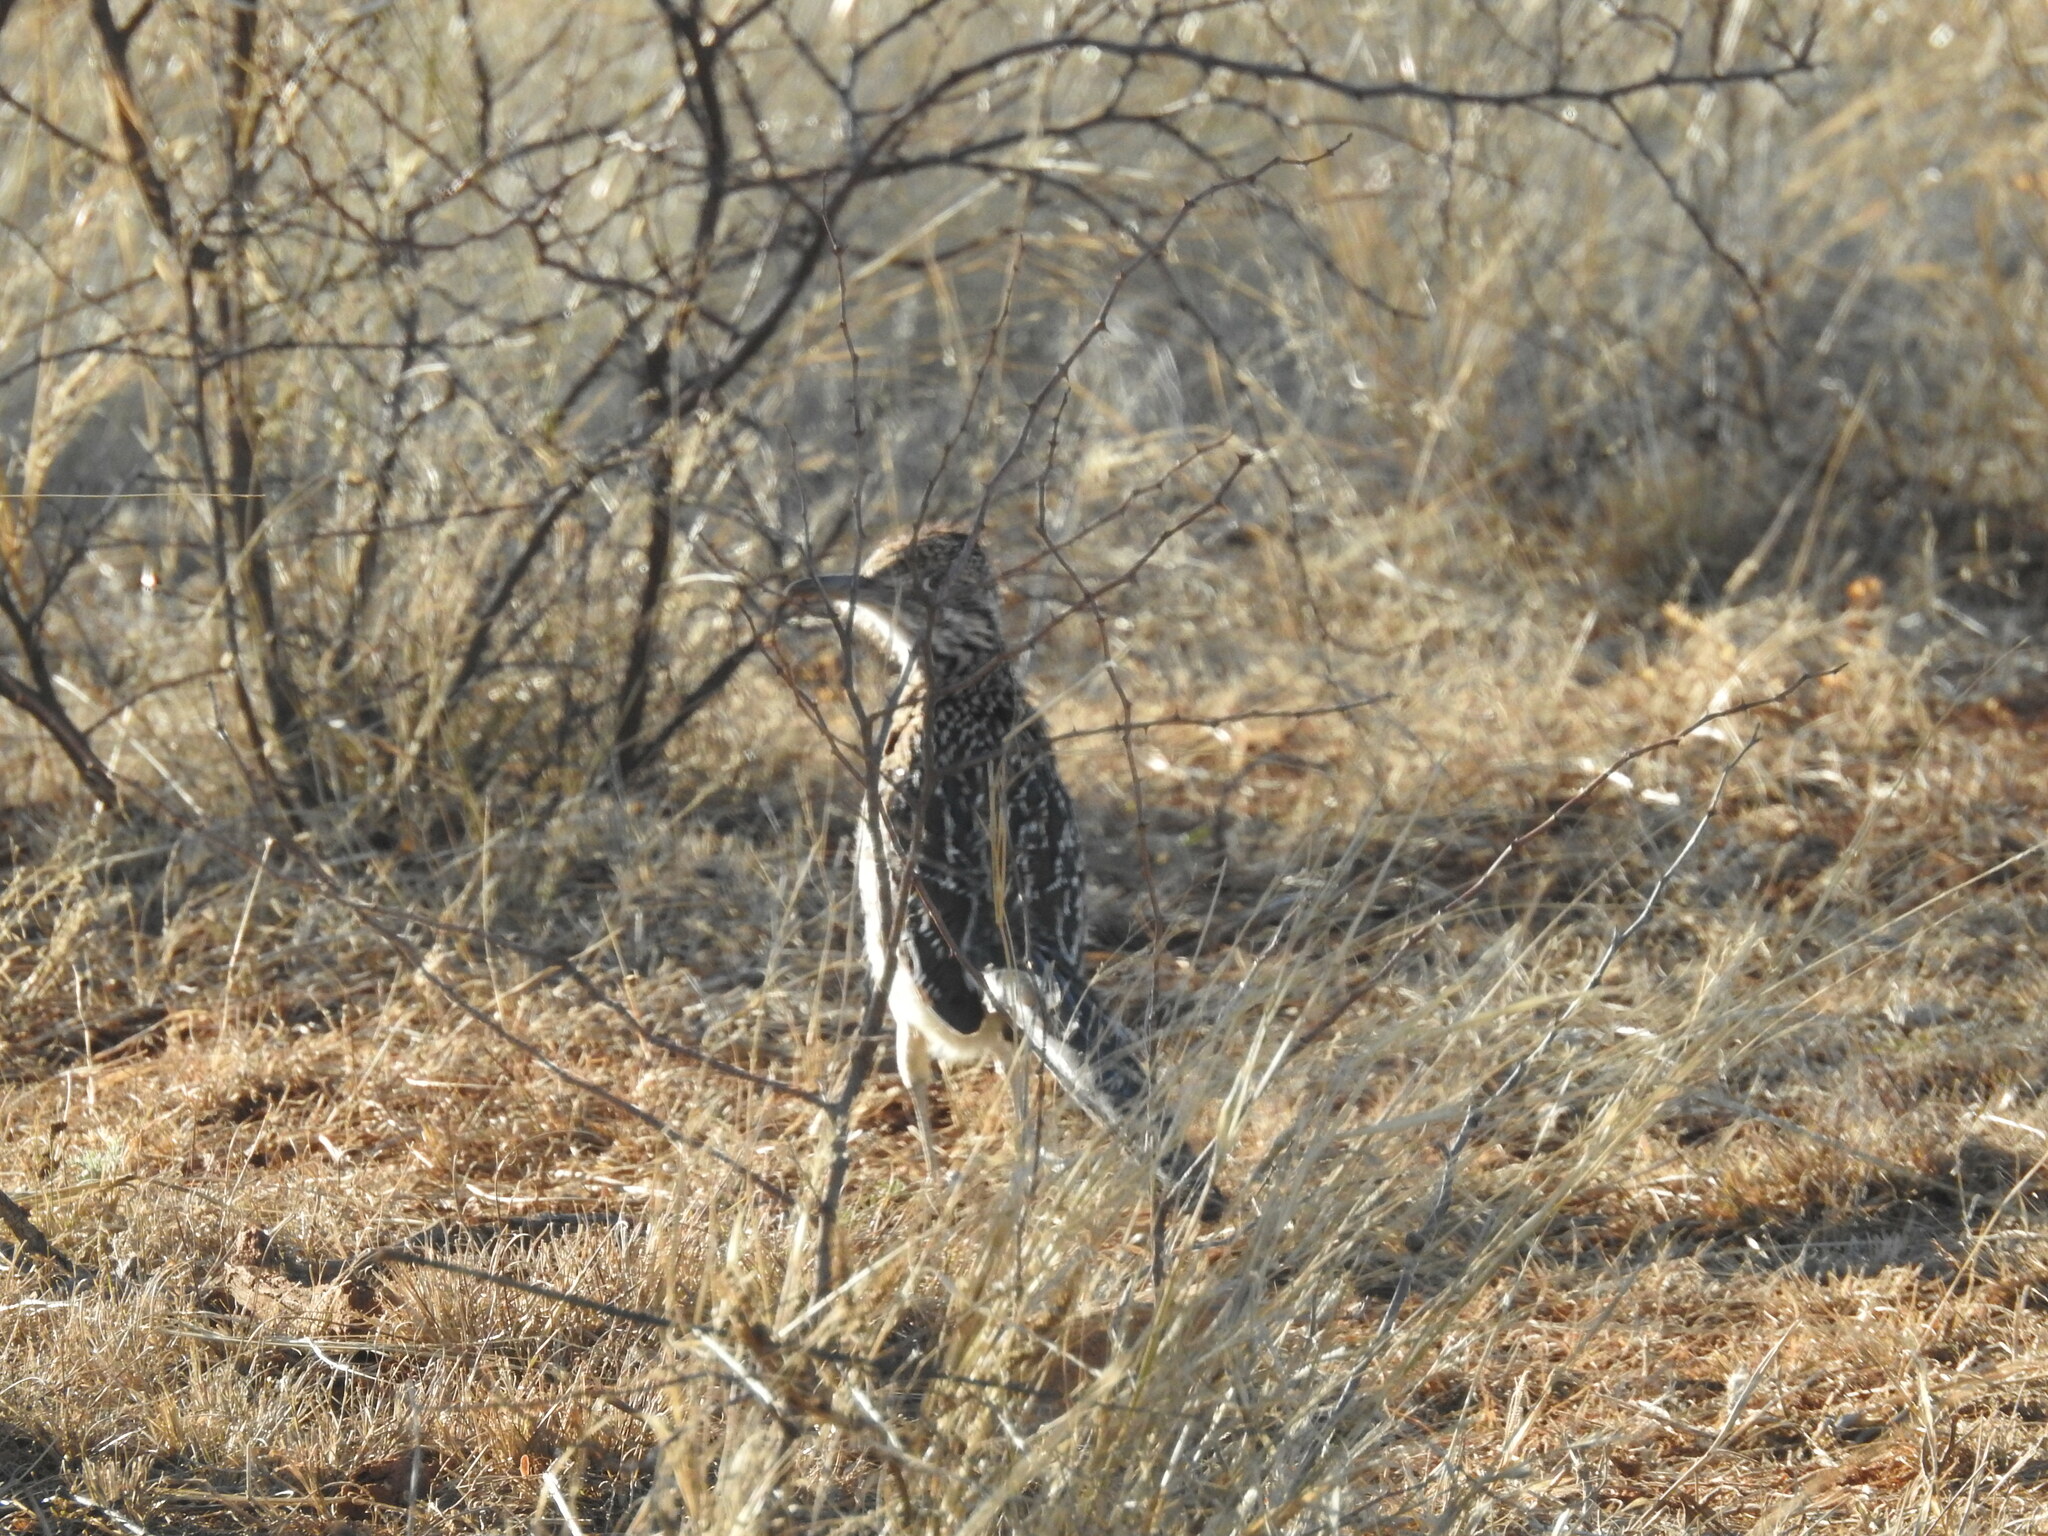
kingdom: Animalia
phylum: Chordata
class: Aves
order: Cuculiformes
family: Cuculidae
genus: Geococcyx
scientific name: Geococcyx californianus
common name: Greater roadrunner
